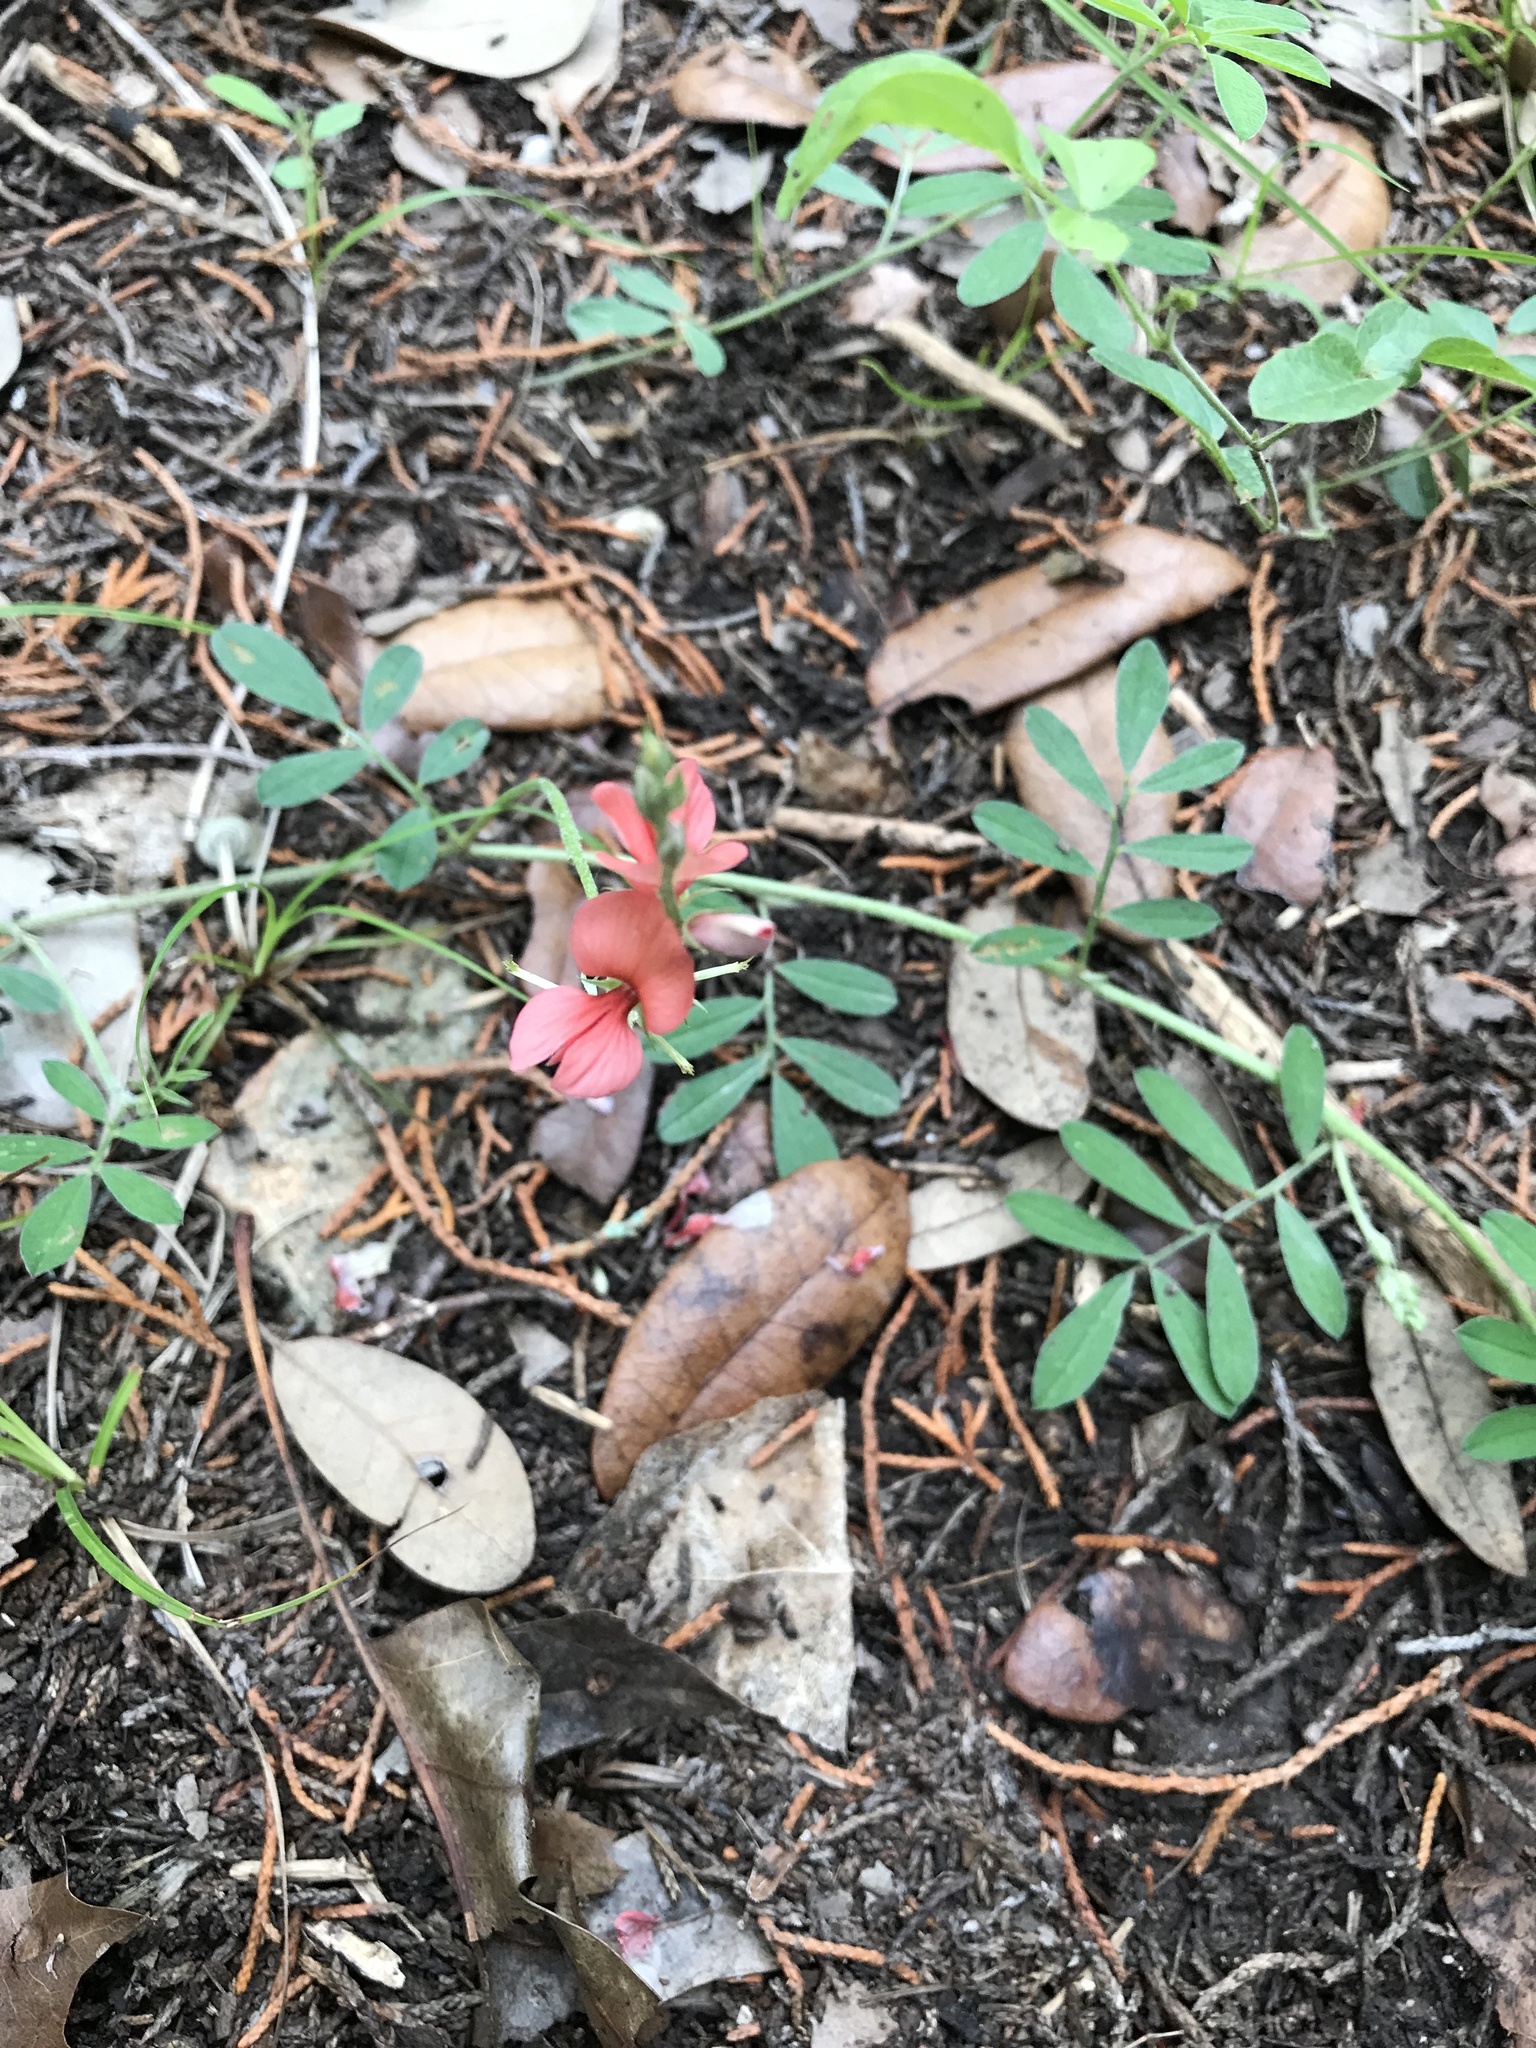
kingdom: Plantae
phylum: Tracheophyta
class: Magnoliopsida
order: Fabales
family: Fabaceae
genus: Indigofera
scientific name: Indigofera miniata
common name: Coast indigo
